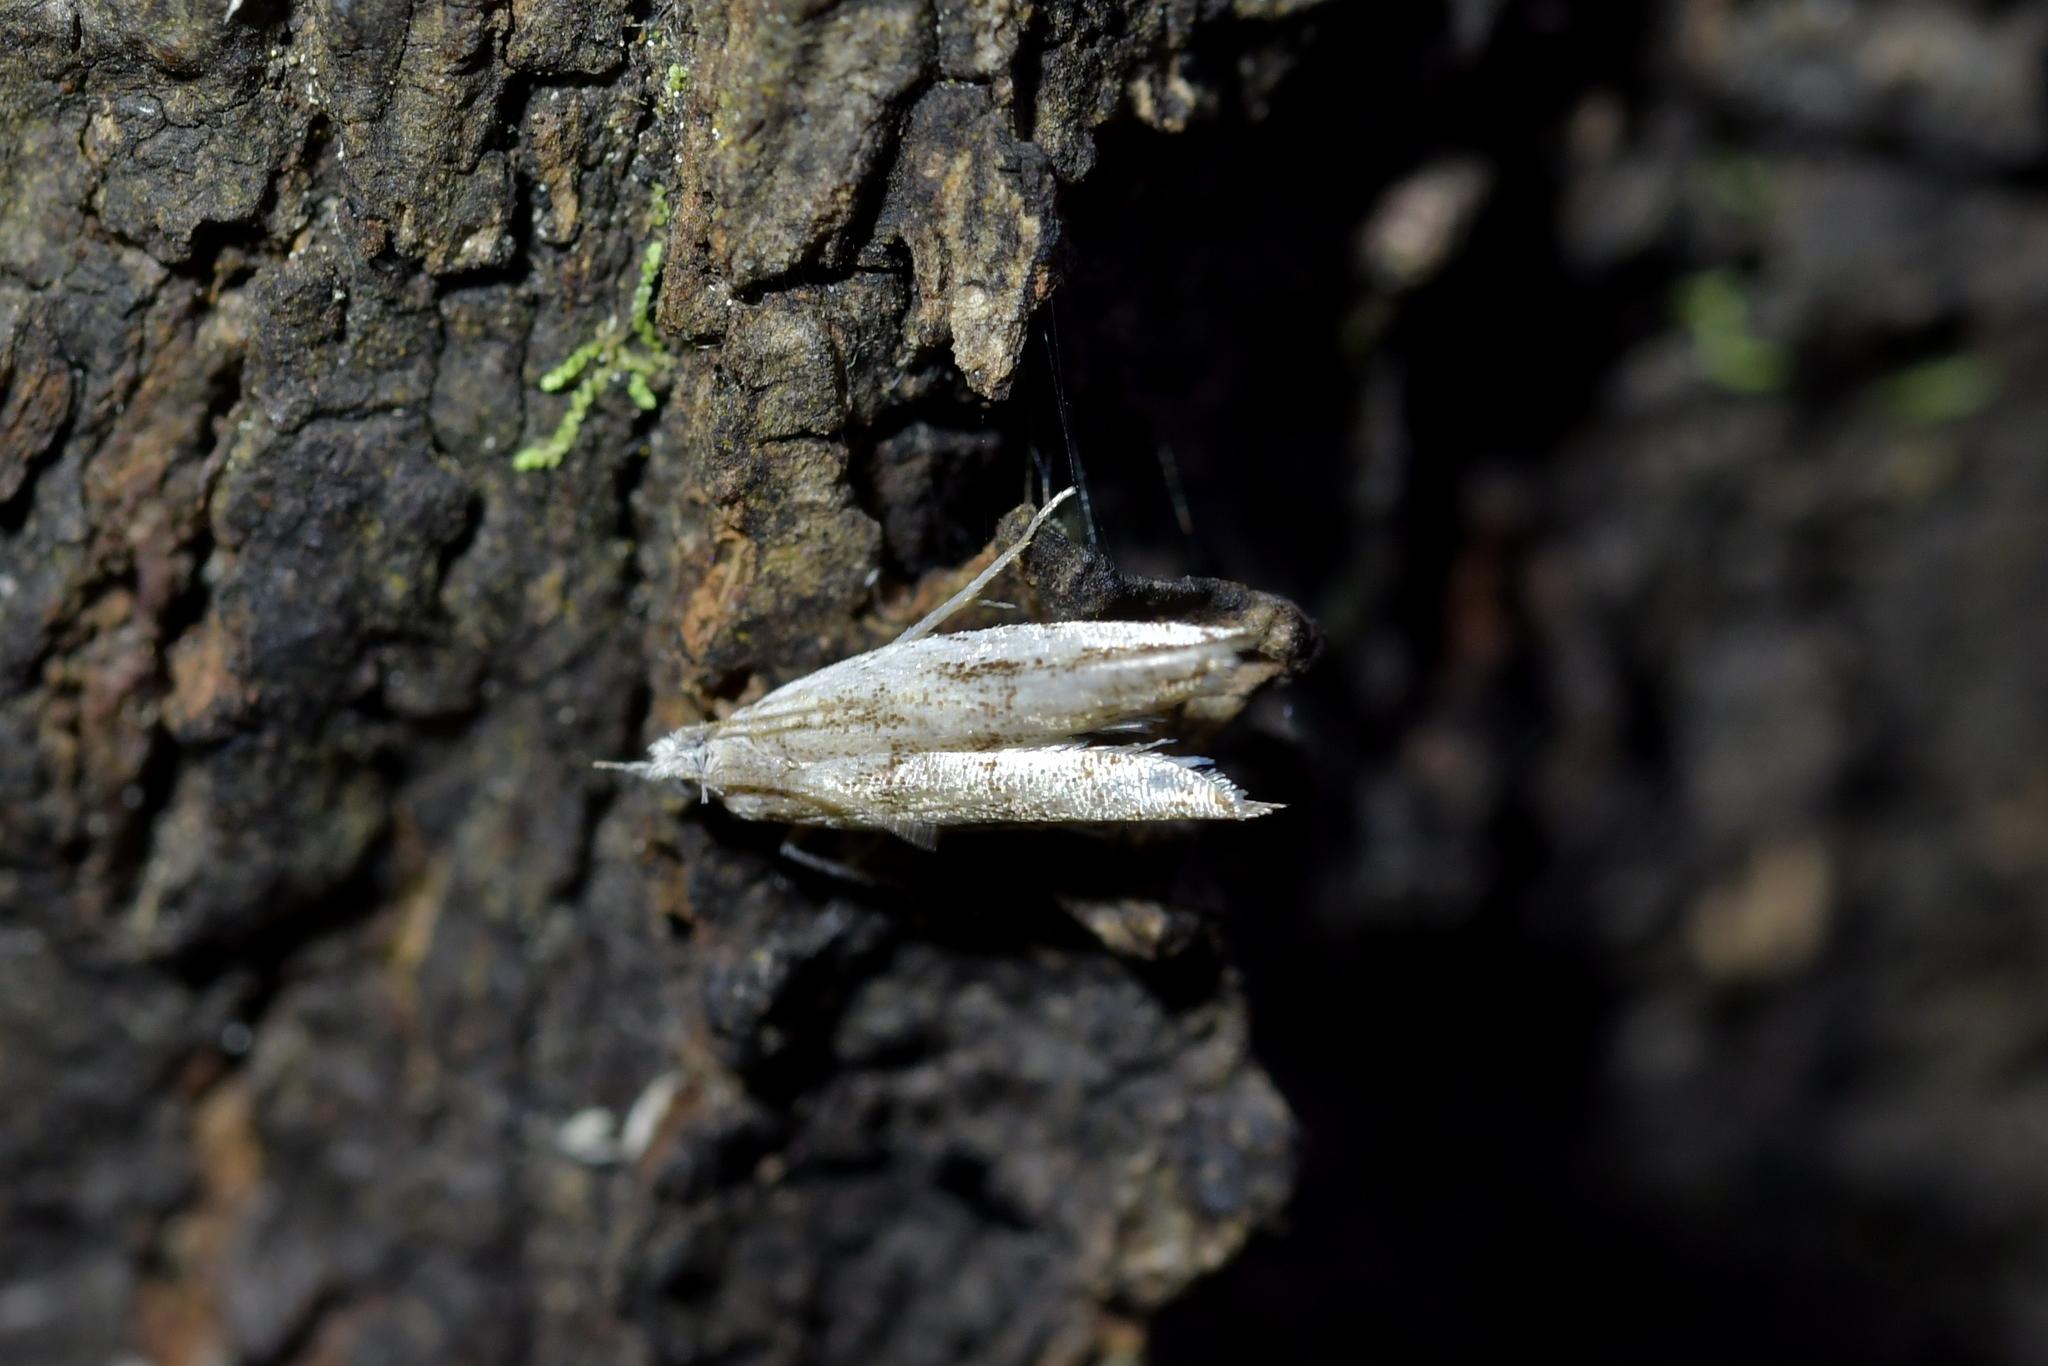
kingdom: Animalia
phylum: Arthropoda
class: Insecta
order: Lepidoptera
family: Tortricidae
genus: Holocola
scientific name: Holocola
